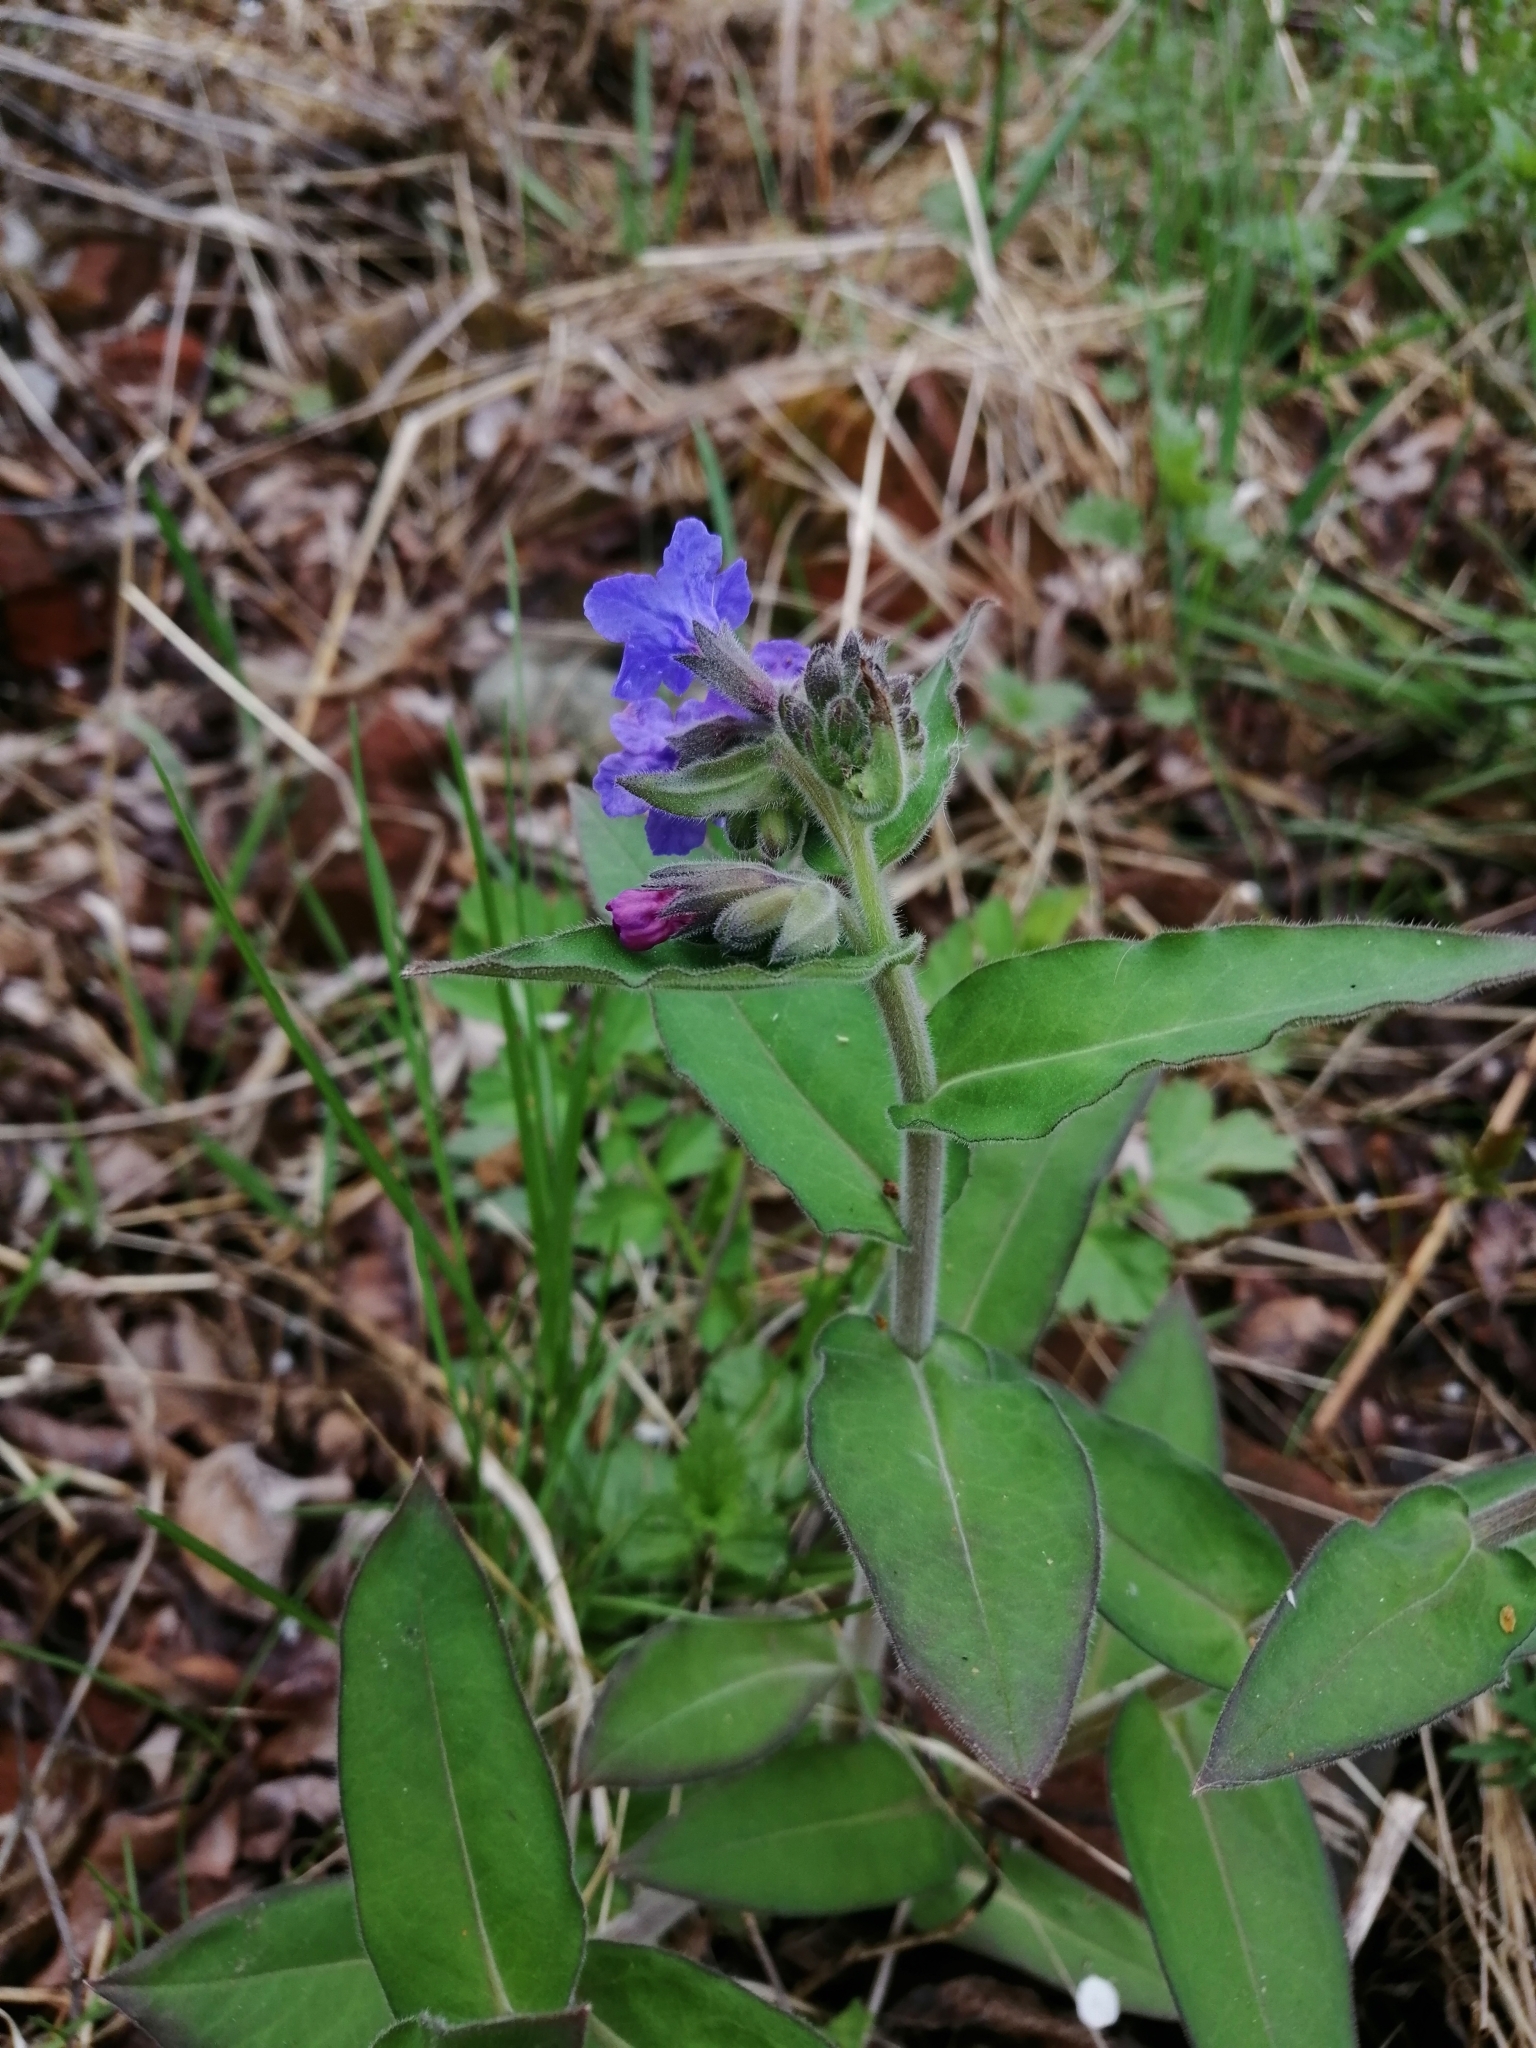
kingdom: Plantae
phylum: Tracheophyta
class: Magnoliopsida
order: Boraginales
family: Boraginaceae
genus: Pulmonaria
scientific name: Pulmonaria mollis
